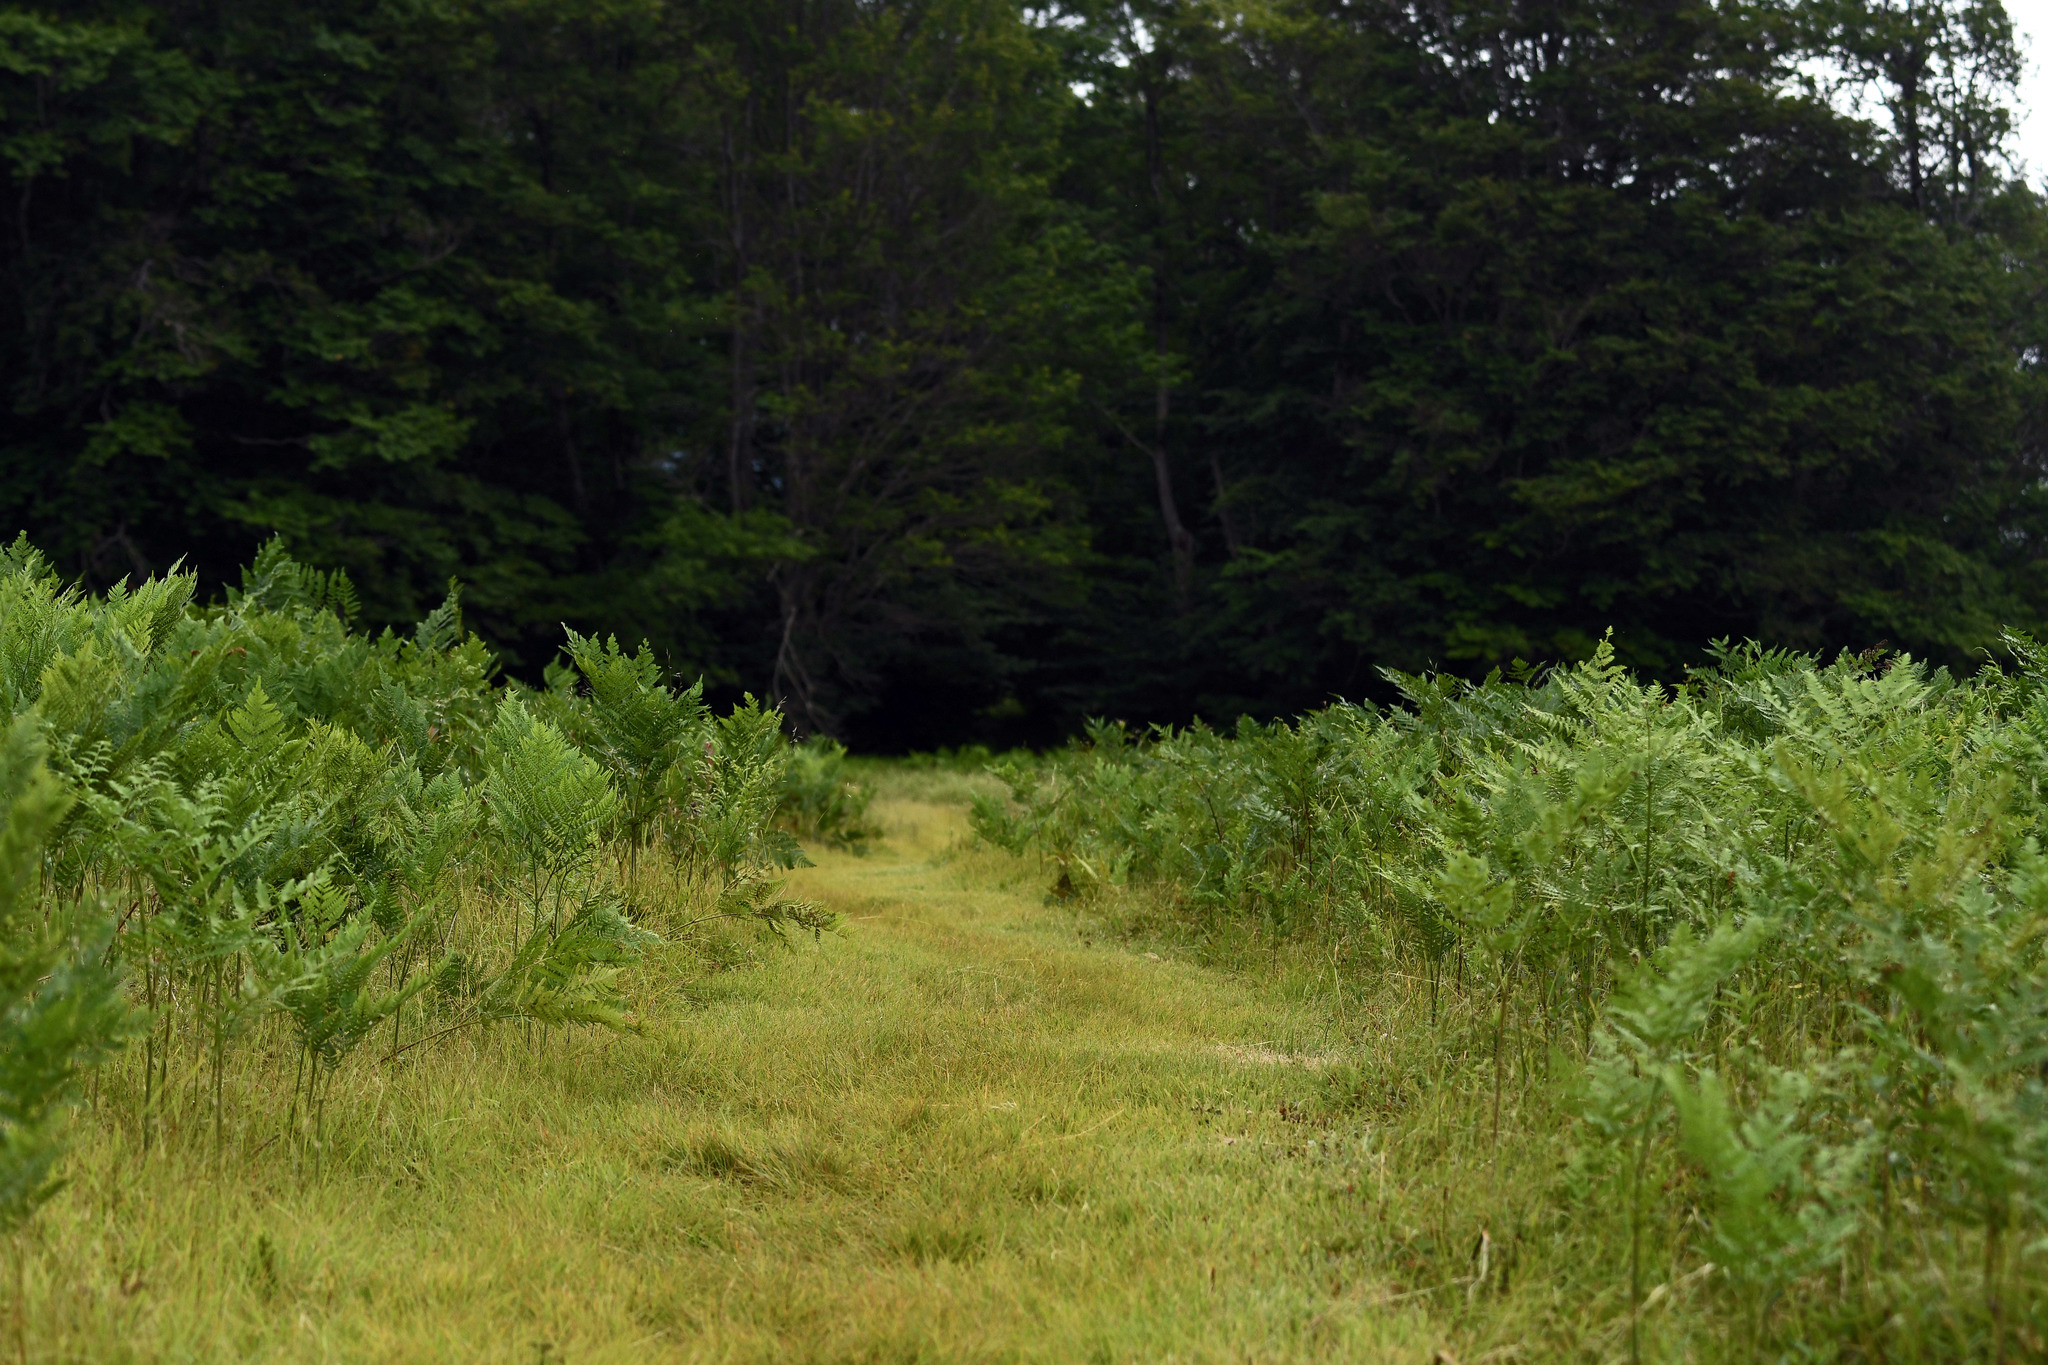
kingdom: Plantae
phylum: Tracheophyta
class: Polypodiopsida
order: Polypodiales
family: Dennstaedtiaceae
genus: Pteridium
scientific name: Pteridium aquilinum
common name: Bracken
